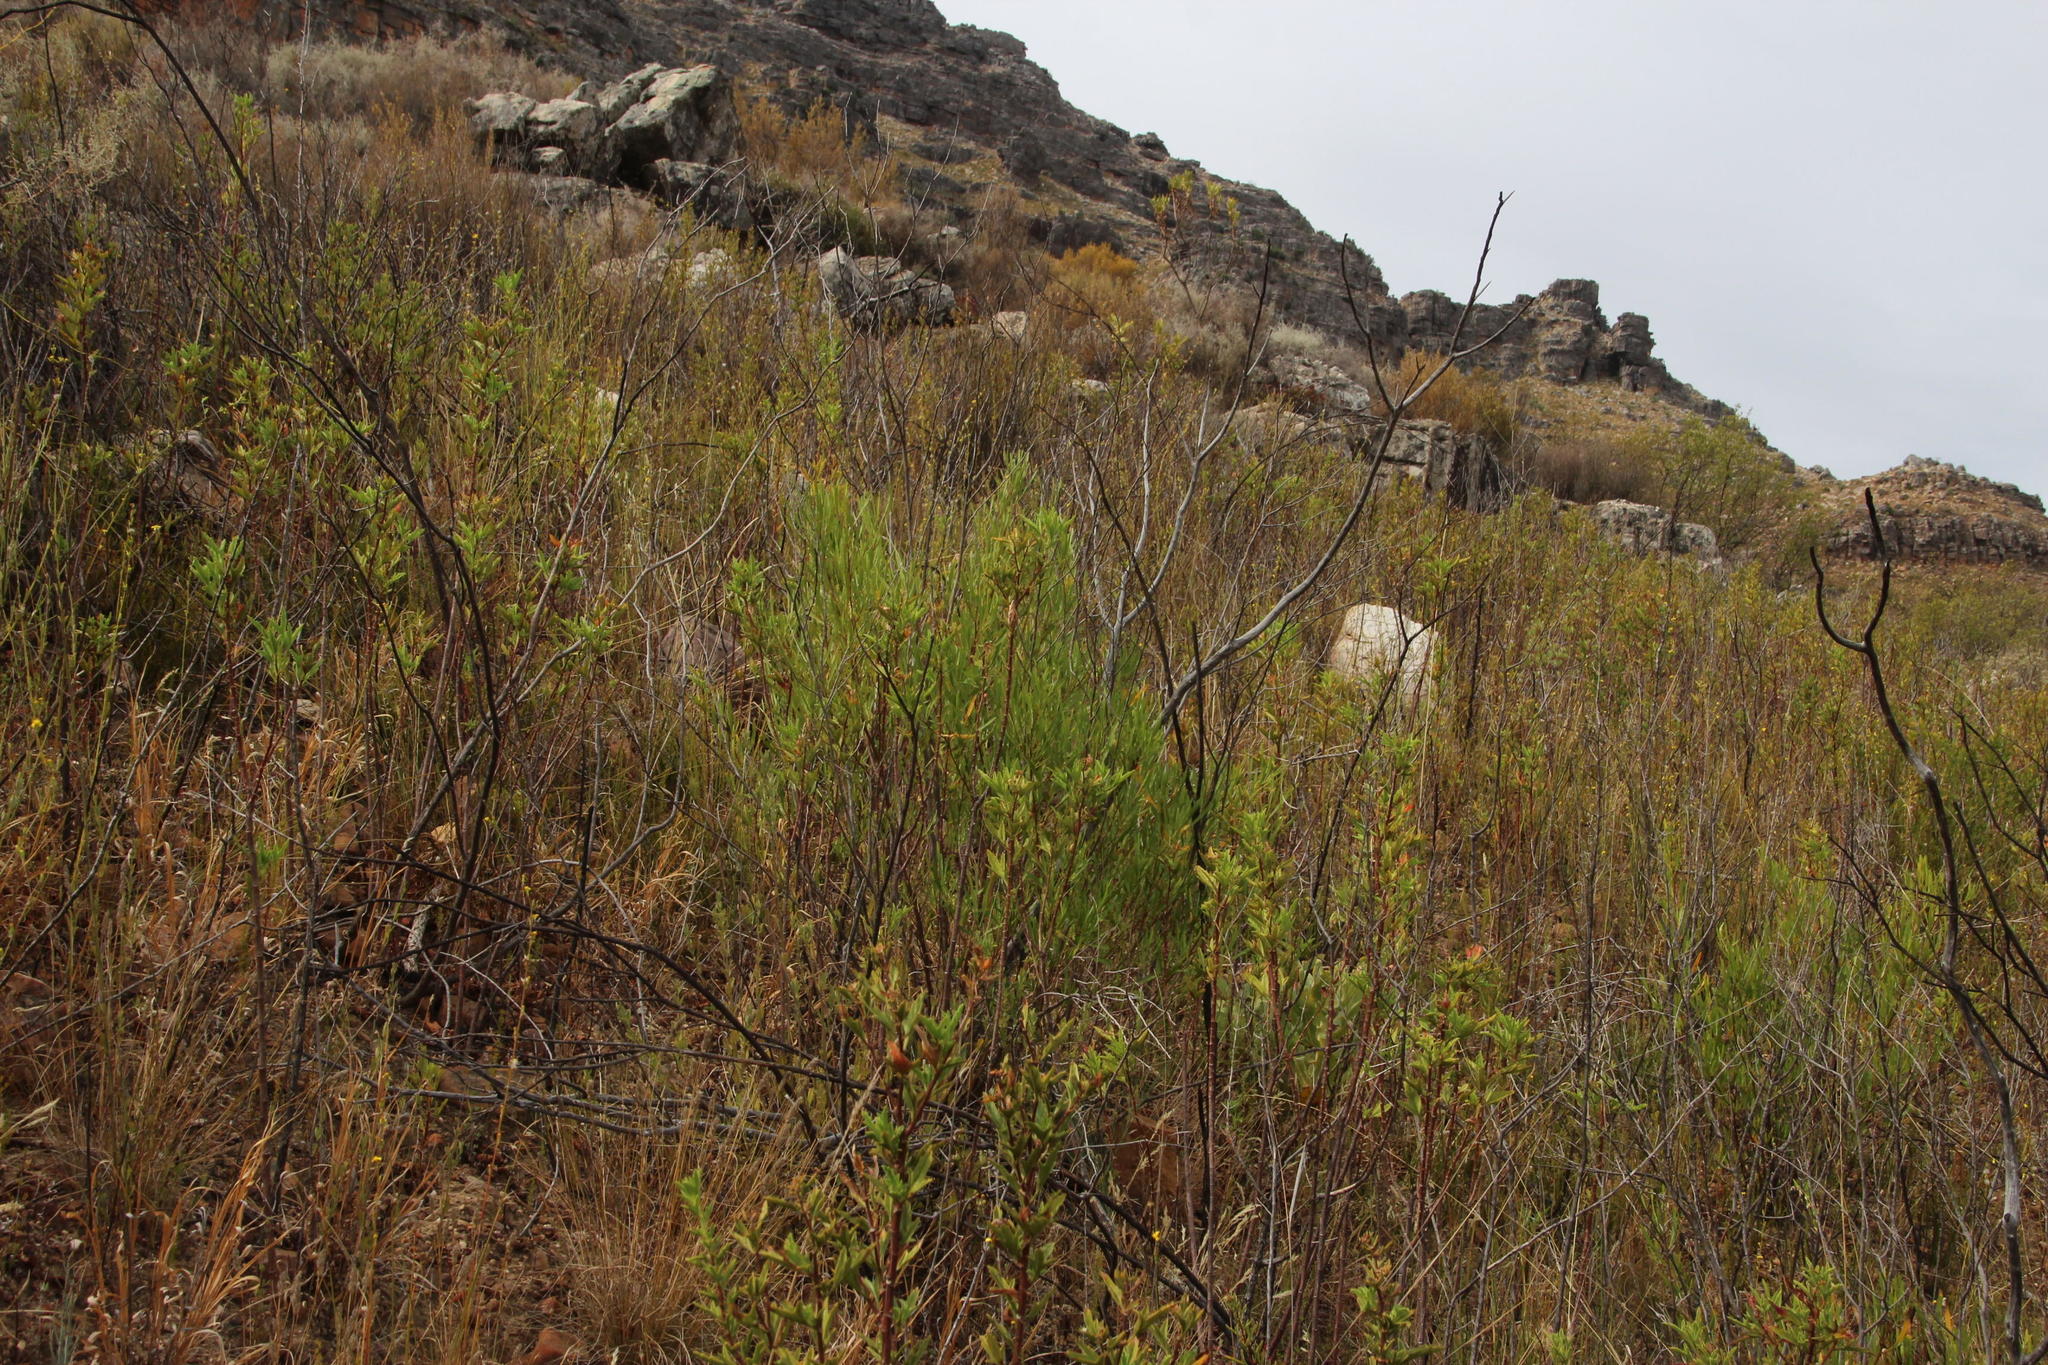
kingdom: Plantae
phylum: Tracheophyta
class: Magnoliopsida
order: Sapindales
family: Sapindaceae
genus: Dodonaea
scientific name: Dodonaea viscosa
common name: Hopbush
